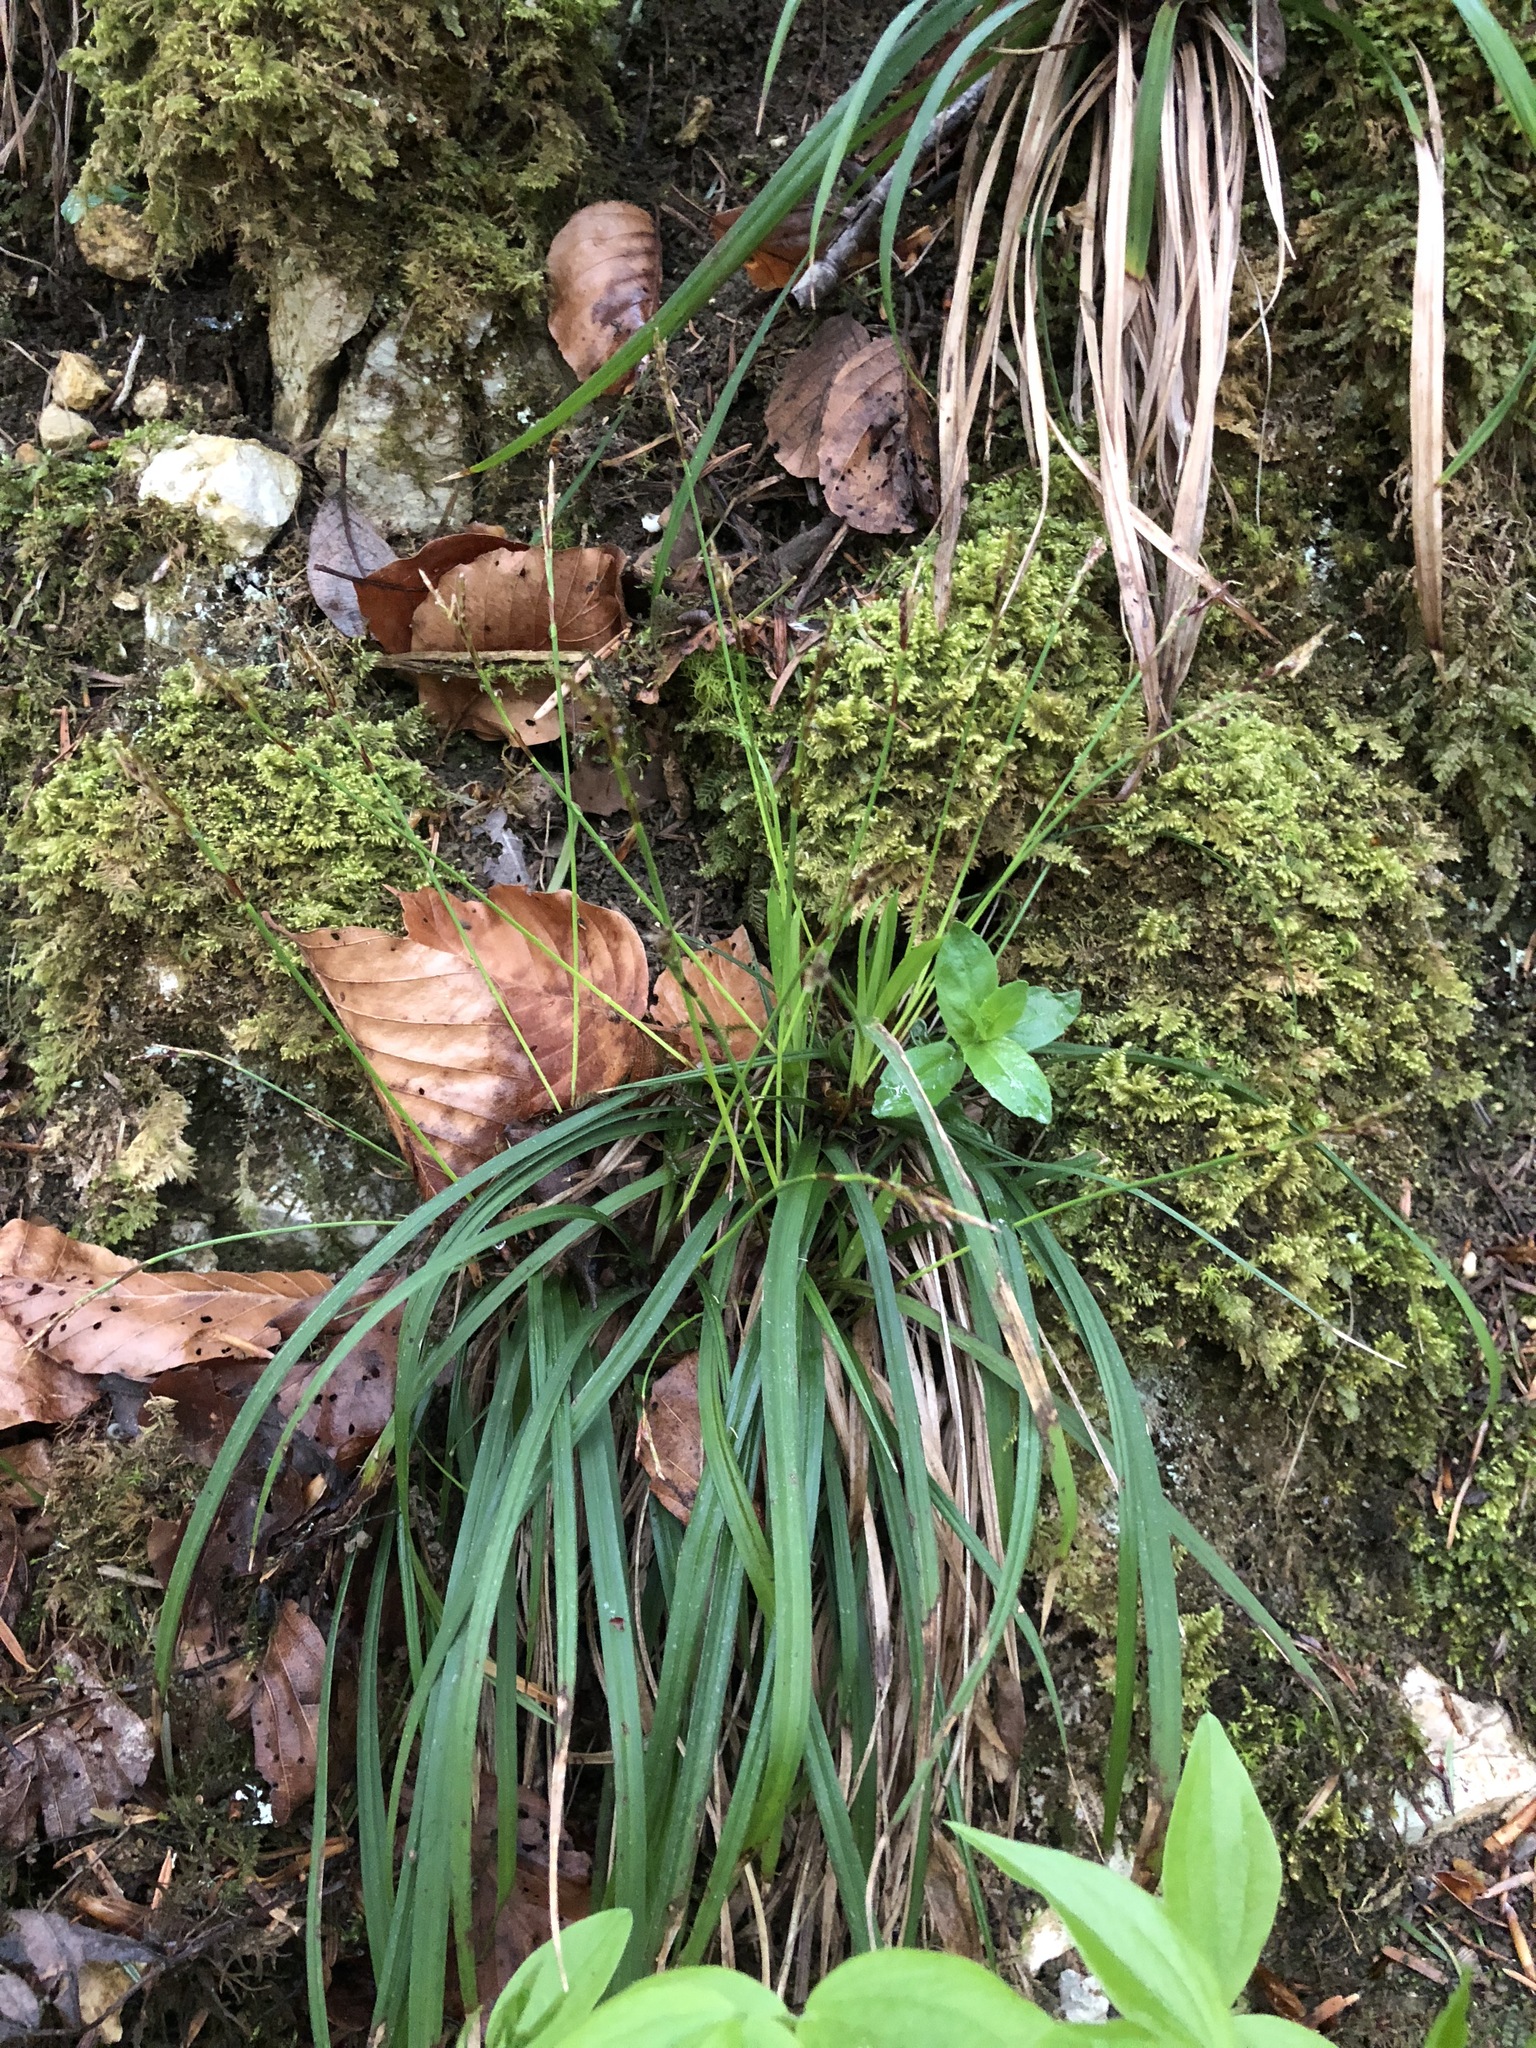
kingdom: Plantae
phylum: Tracheophyta
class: Liliopsida
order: Poales
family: Cyperaceae
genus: Carex
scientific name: Carex digitata
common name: Fingered sedge
